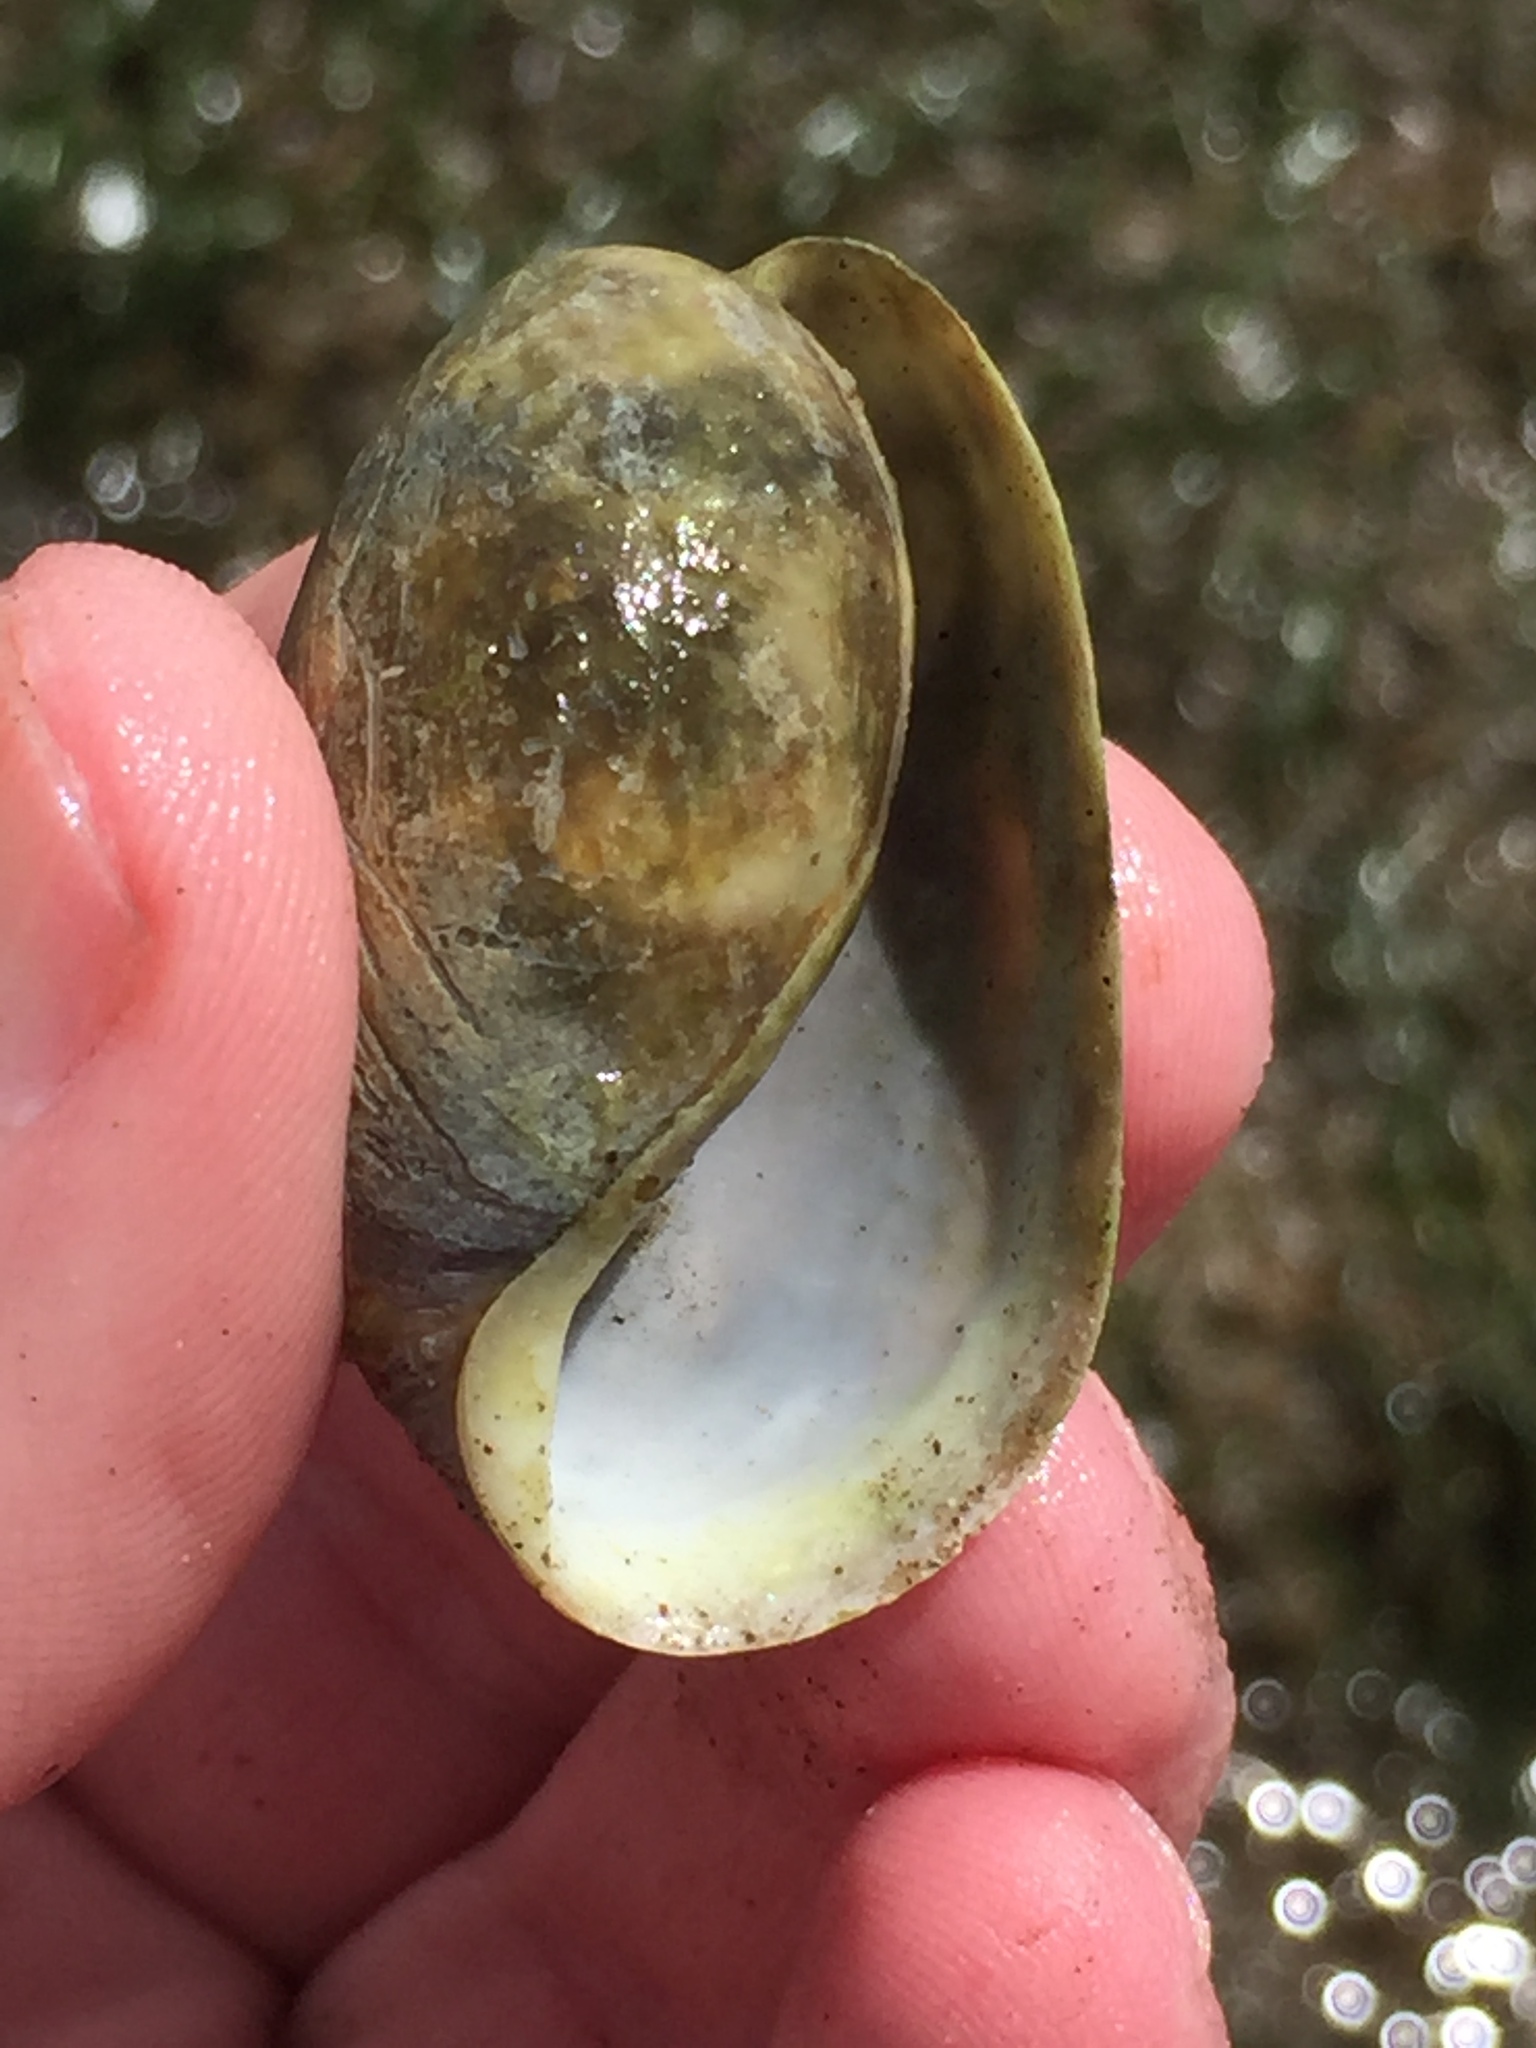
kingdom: Animalia
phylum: Mollusca
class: Gastropoda
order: Cephalaspidea
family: Bullidae
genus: Bulla
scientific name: Bulla quoyii
